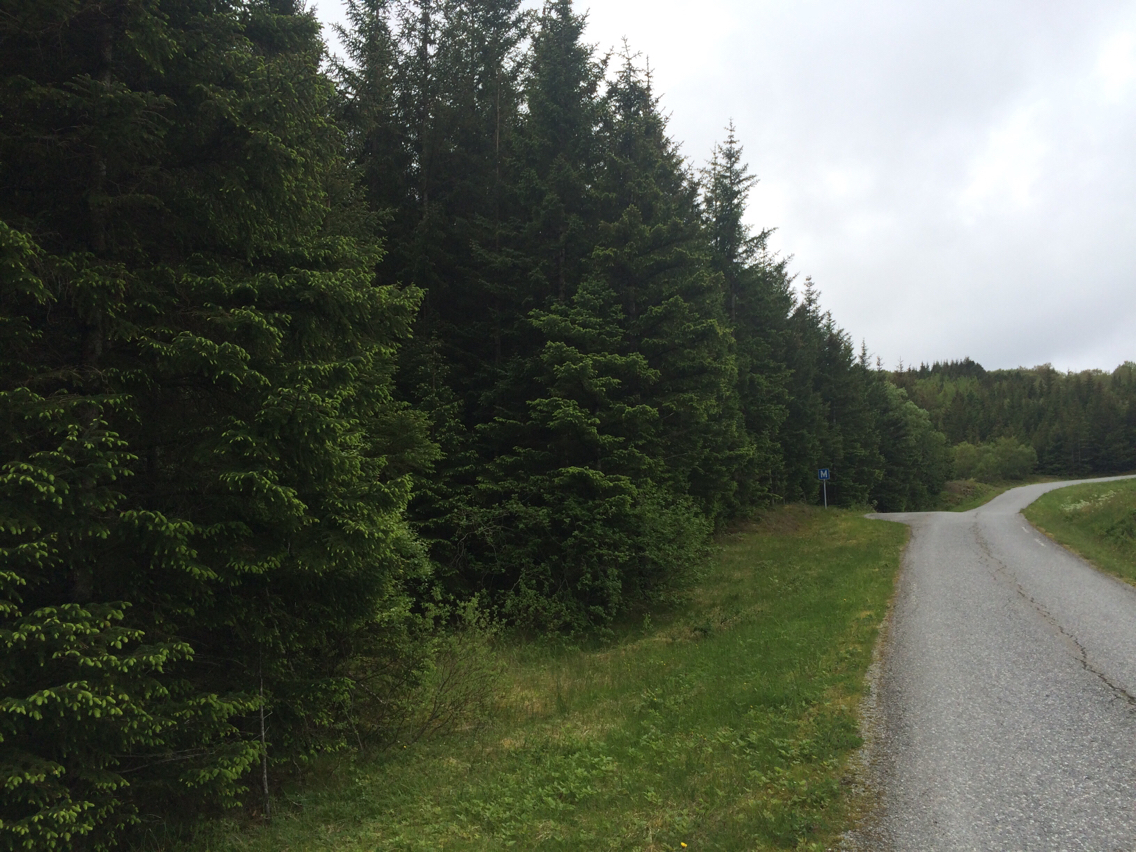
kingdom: Plantae
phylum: Tracheophyta
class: Pinopsida
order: Pinales
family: Pinaceae
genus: Picea
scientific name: Picea abies
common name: Norway spruce
